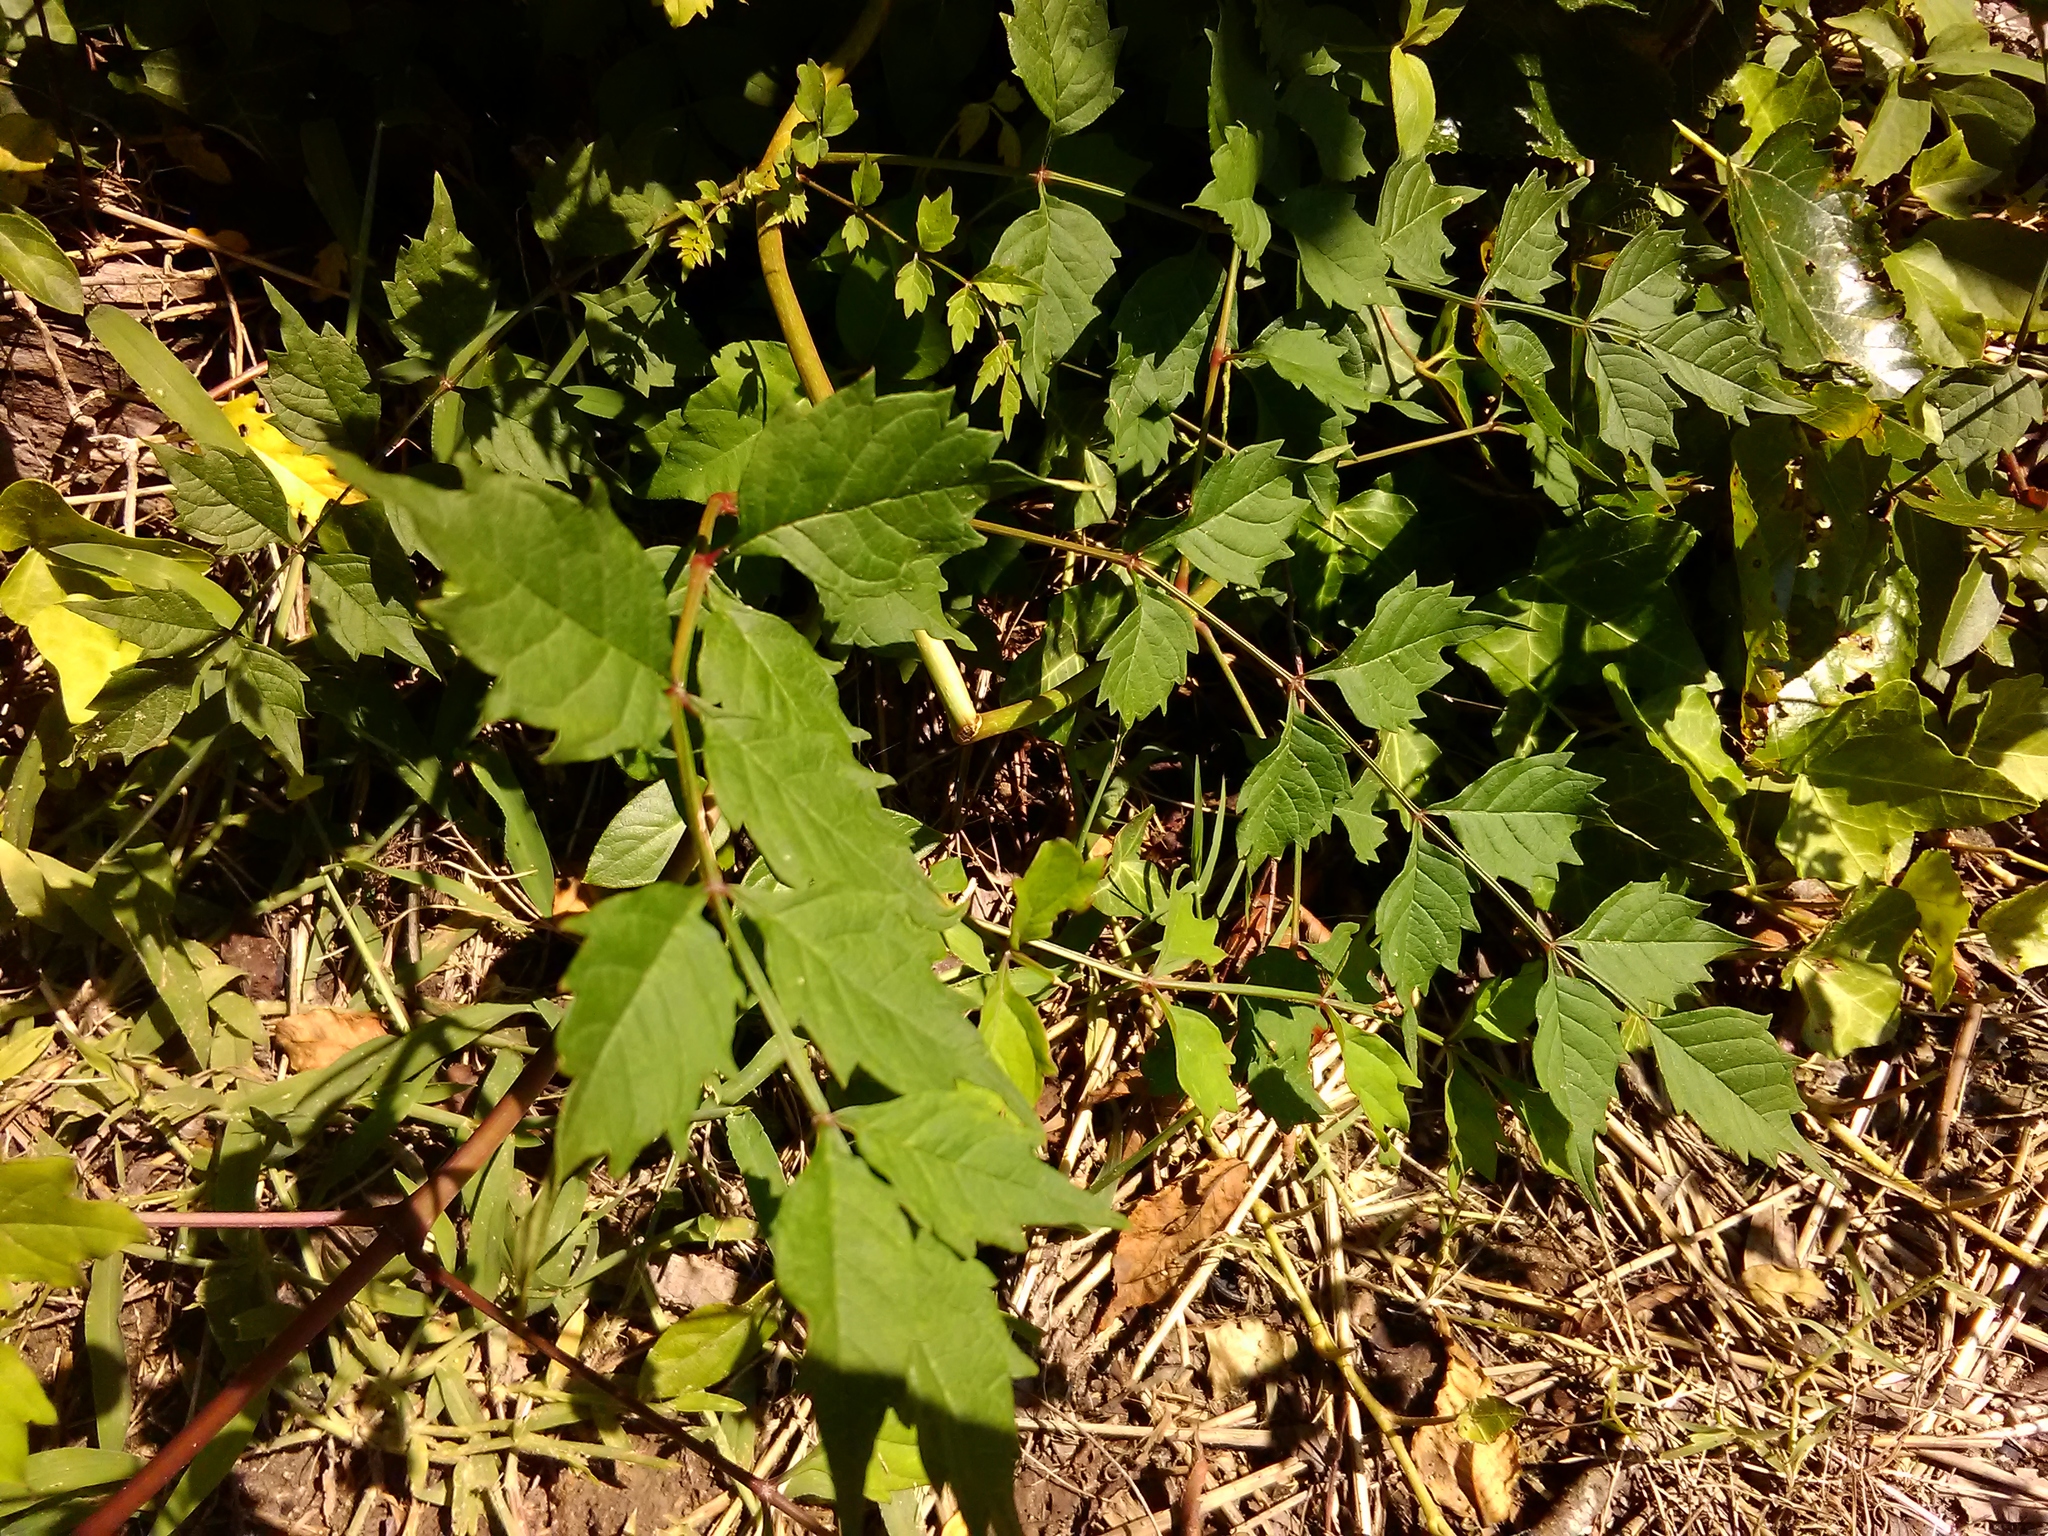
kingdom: Plantae
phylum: Tracheophyta
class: Magnoliopsida
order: Lamiales
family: Bignoniaceae
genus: Campsis
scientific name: Campsis radicans
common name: Trumpet-creeper
